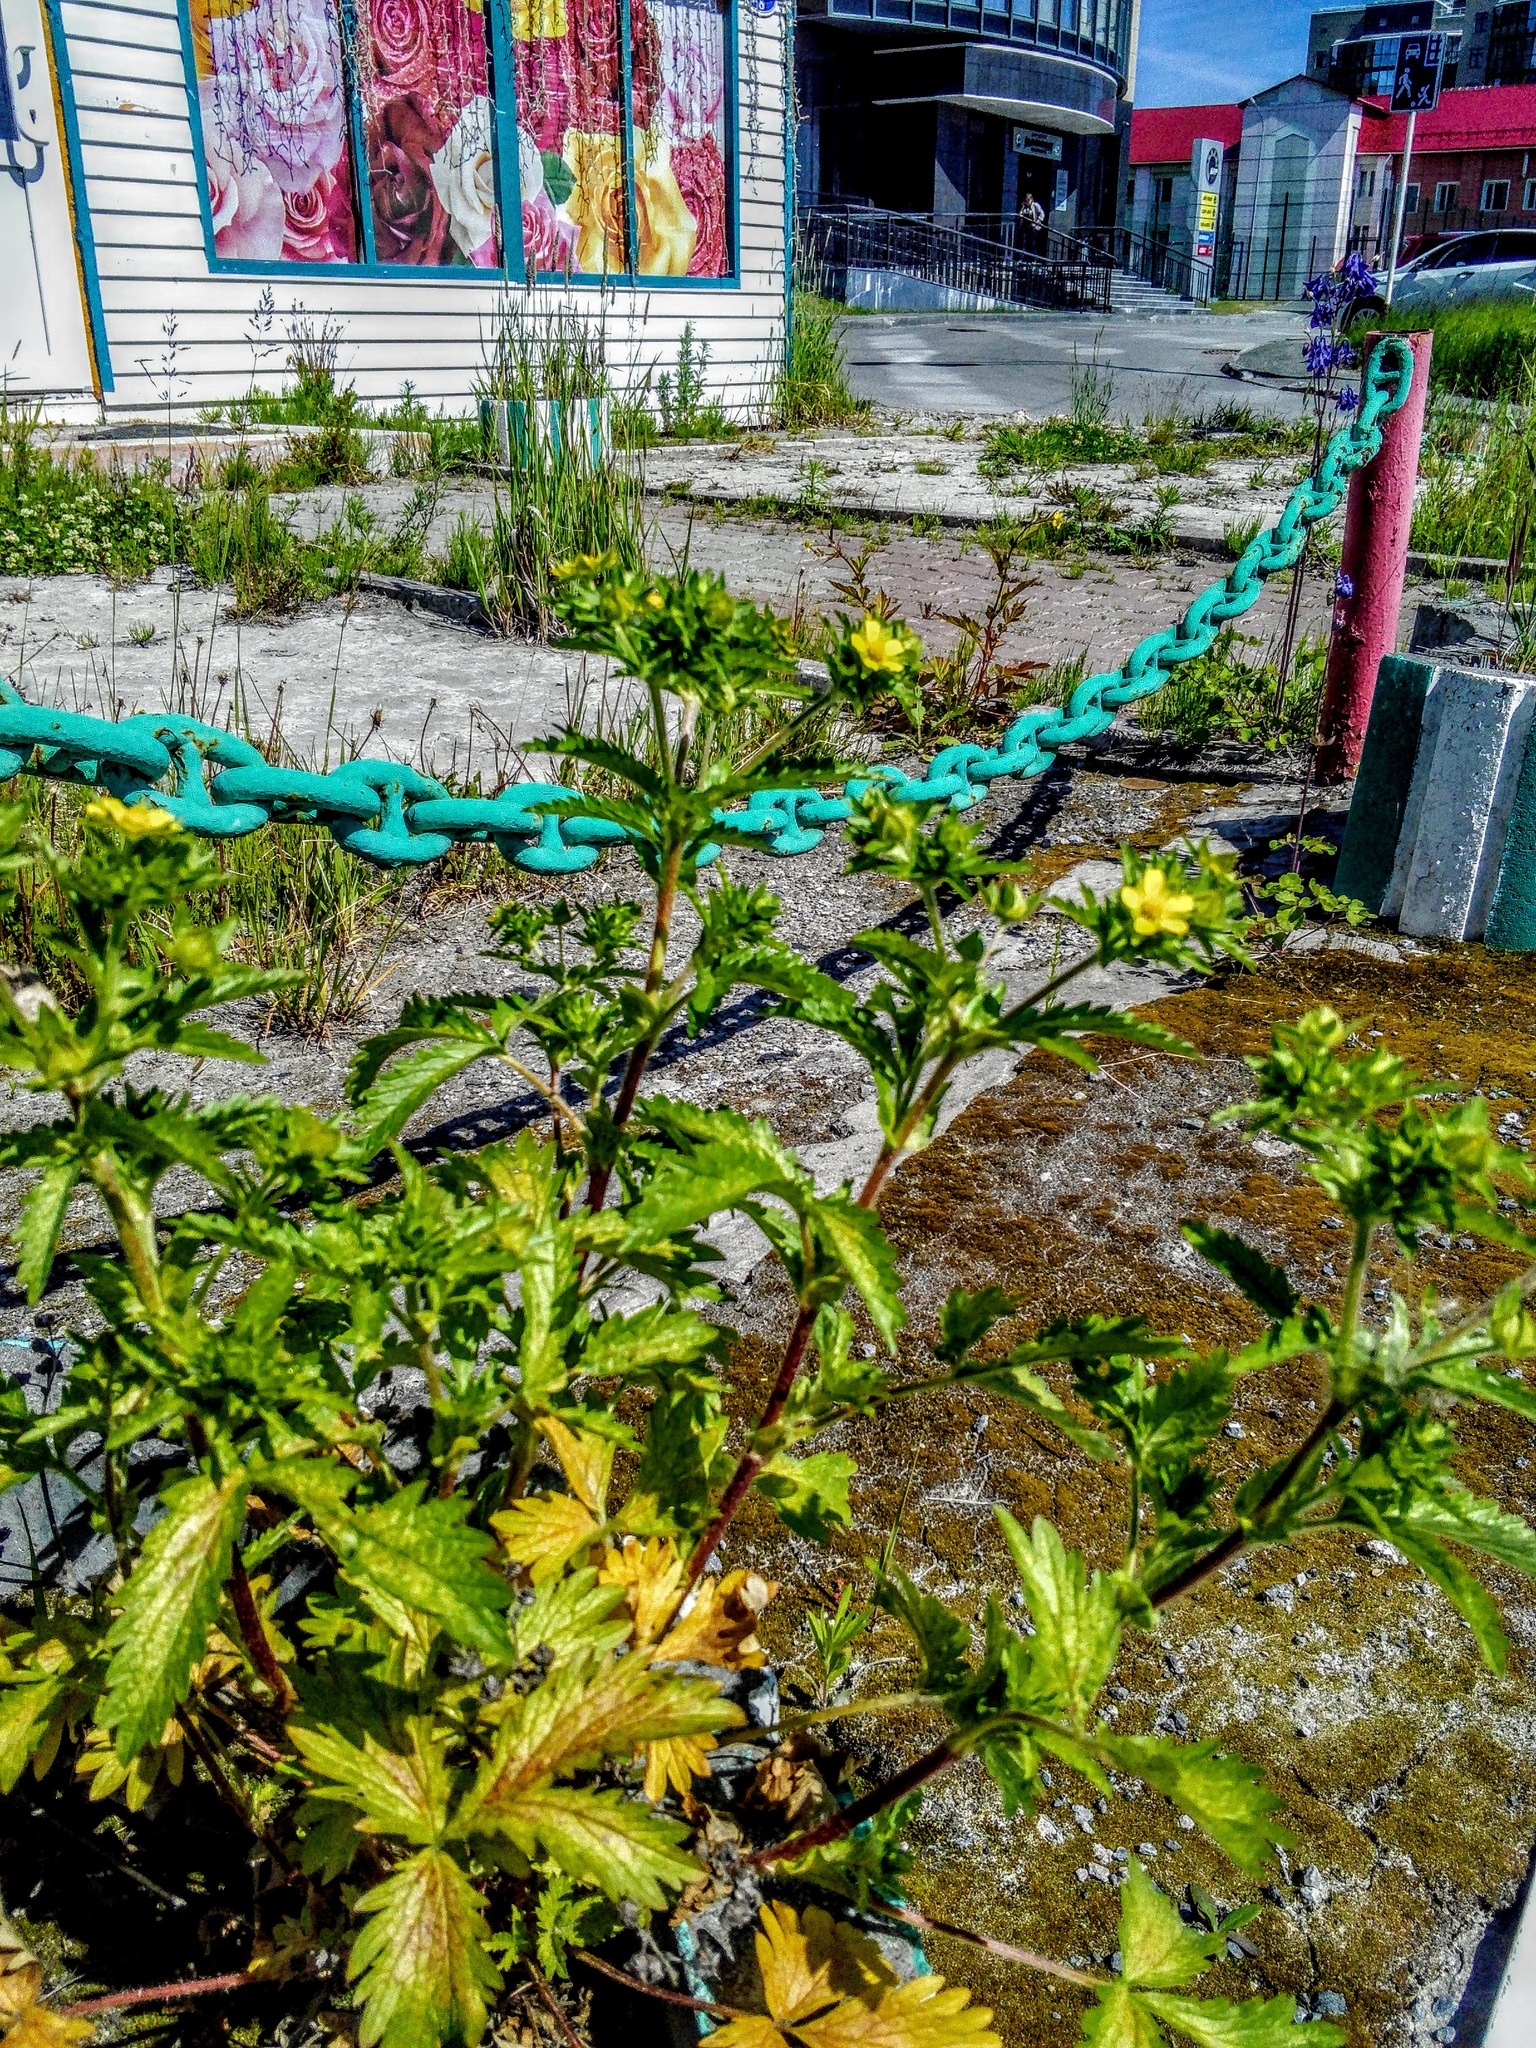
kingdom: Plantae
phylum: Tracheophyta
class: Magnoliopsida
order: Rosales
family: Rosaceae
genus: Potentilla
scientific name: Potentilla norvegica
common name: Ternate-leaved cinquefoil
